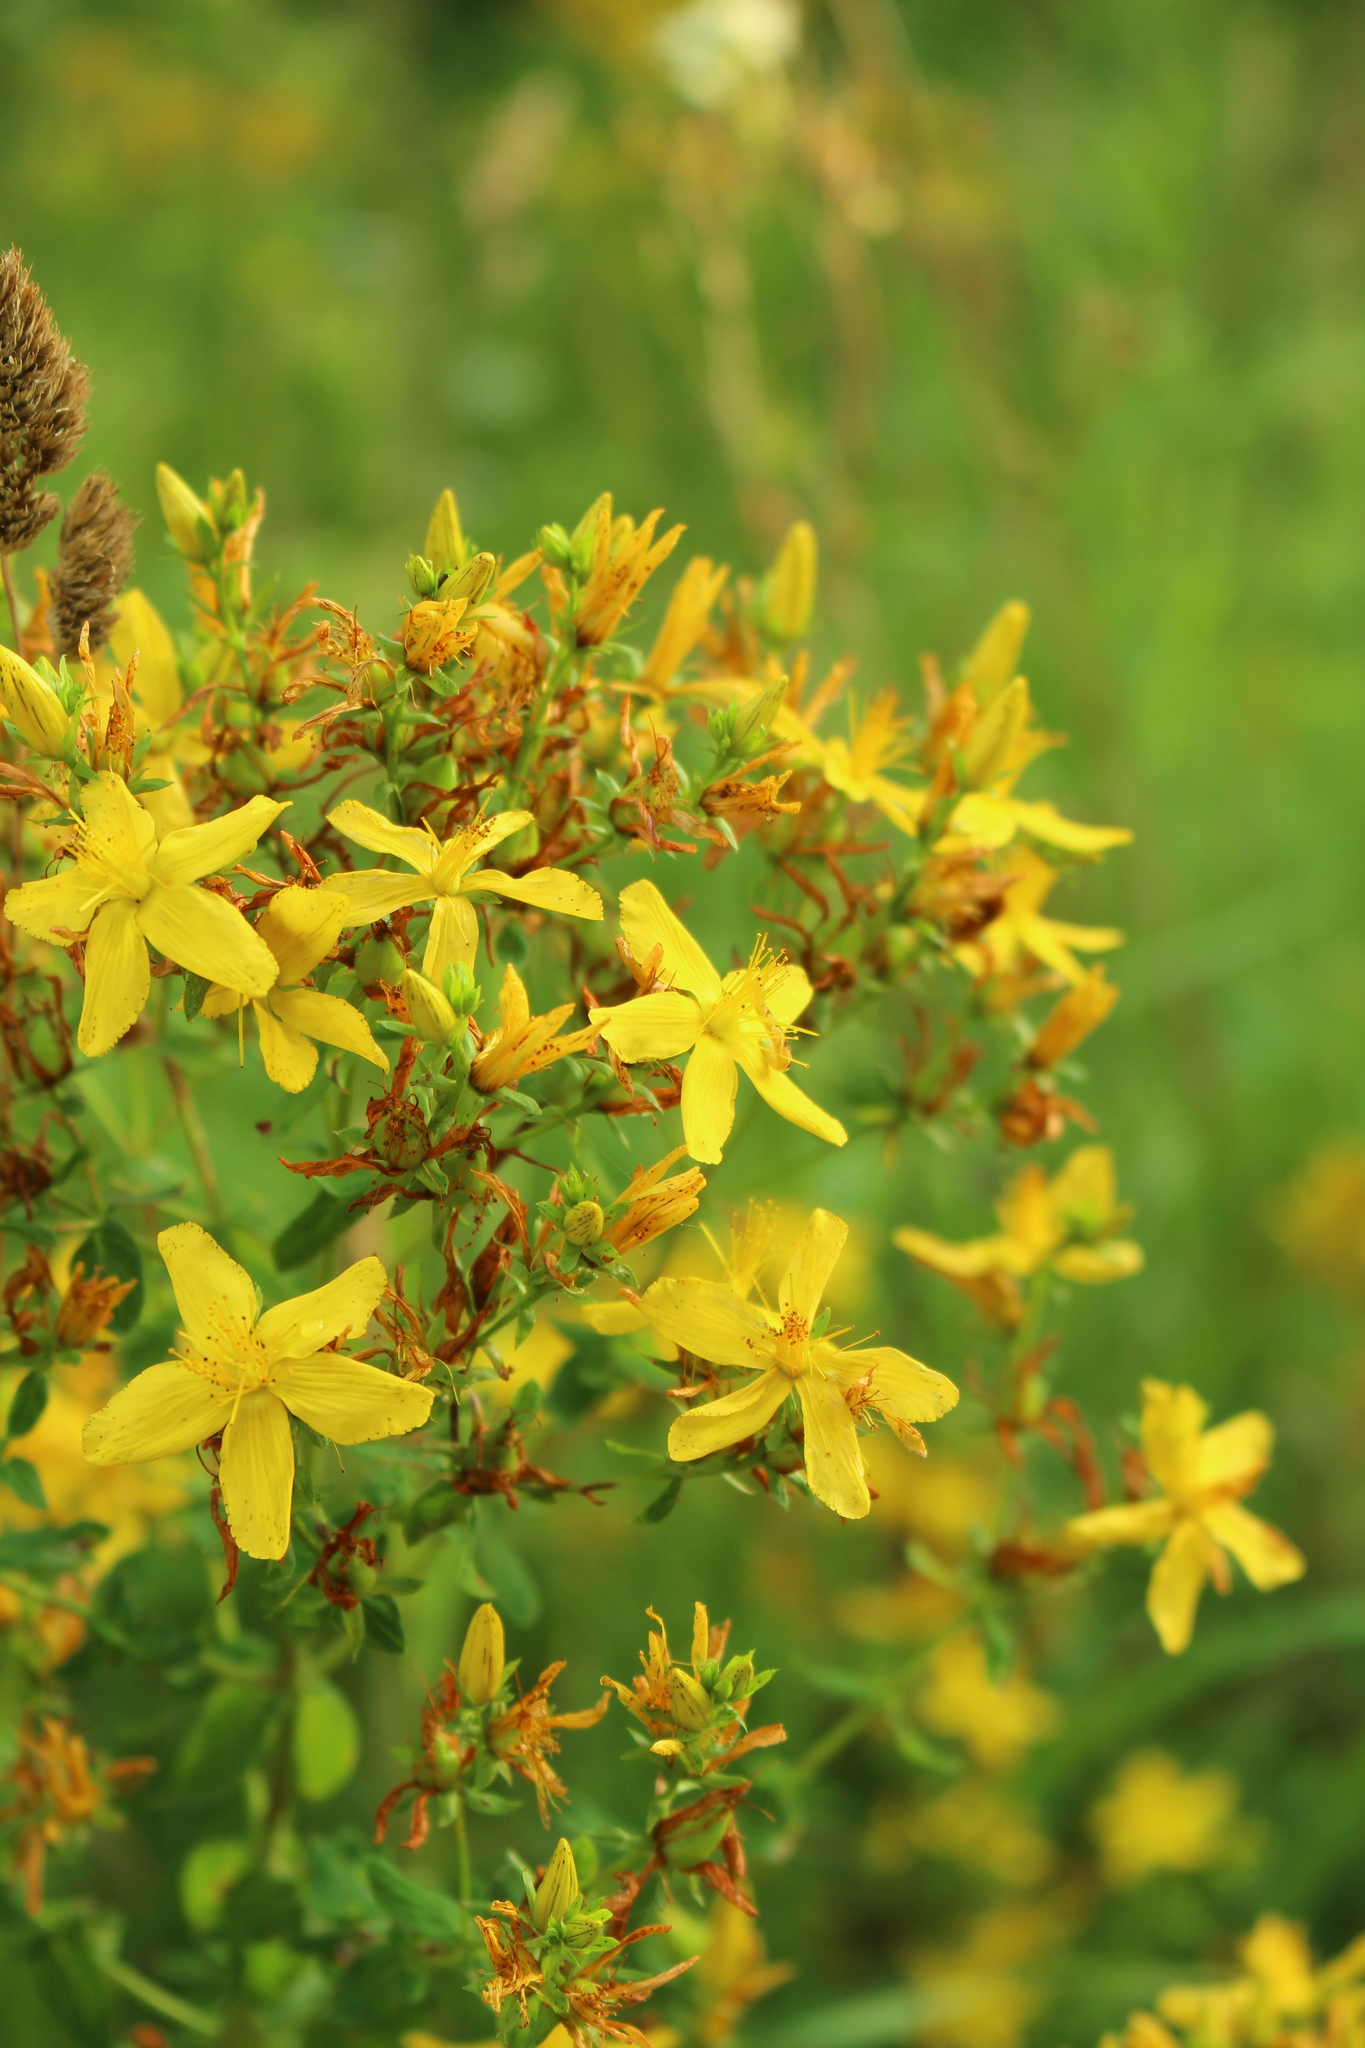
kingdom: Plantae
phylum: Tracheophyta
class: Magnoliopsida
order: Malpighiales
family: Hypericaceae
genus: Hypericum
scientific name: Hypericum perforatum
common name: Common st. johnswort
